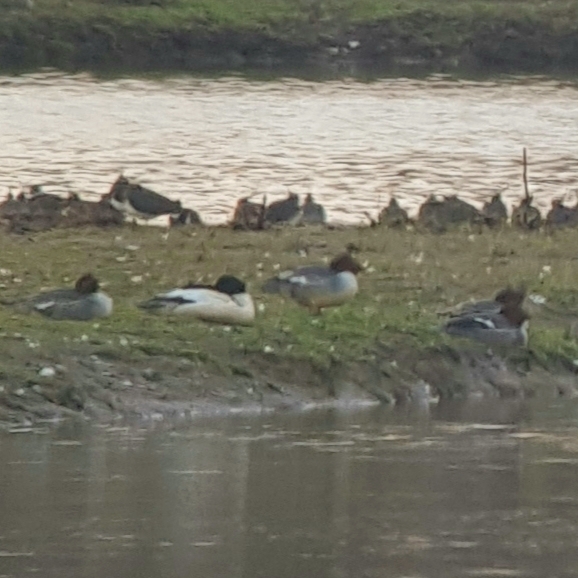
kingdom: Animalia
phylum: Chordata
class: Aves
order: Anseriformes
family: Anatidae
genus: Mergus
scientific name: Mergus merganser
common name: Common merganser
